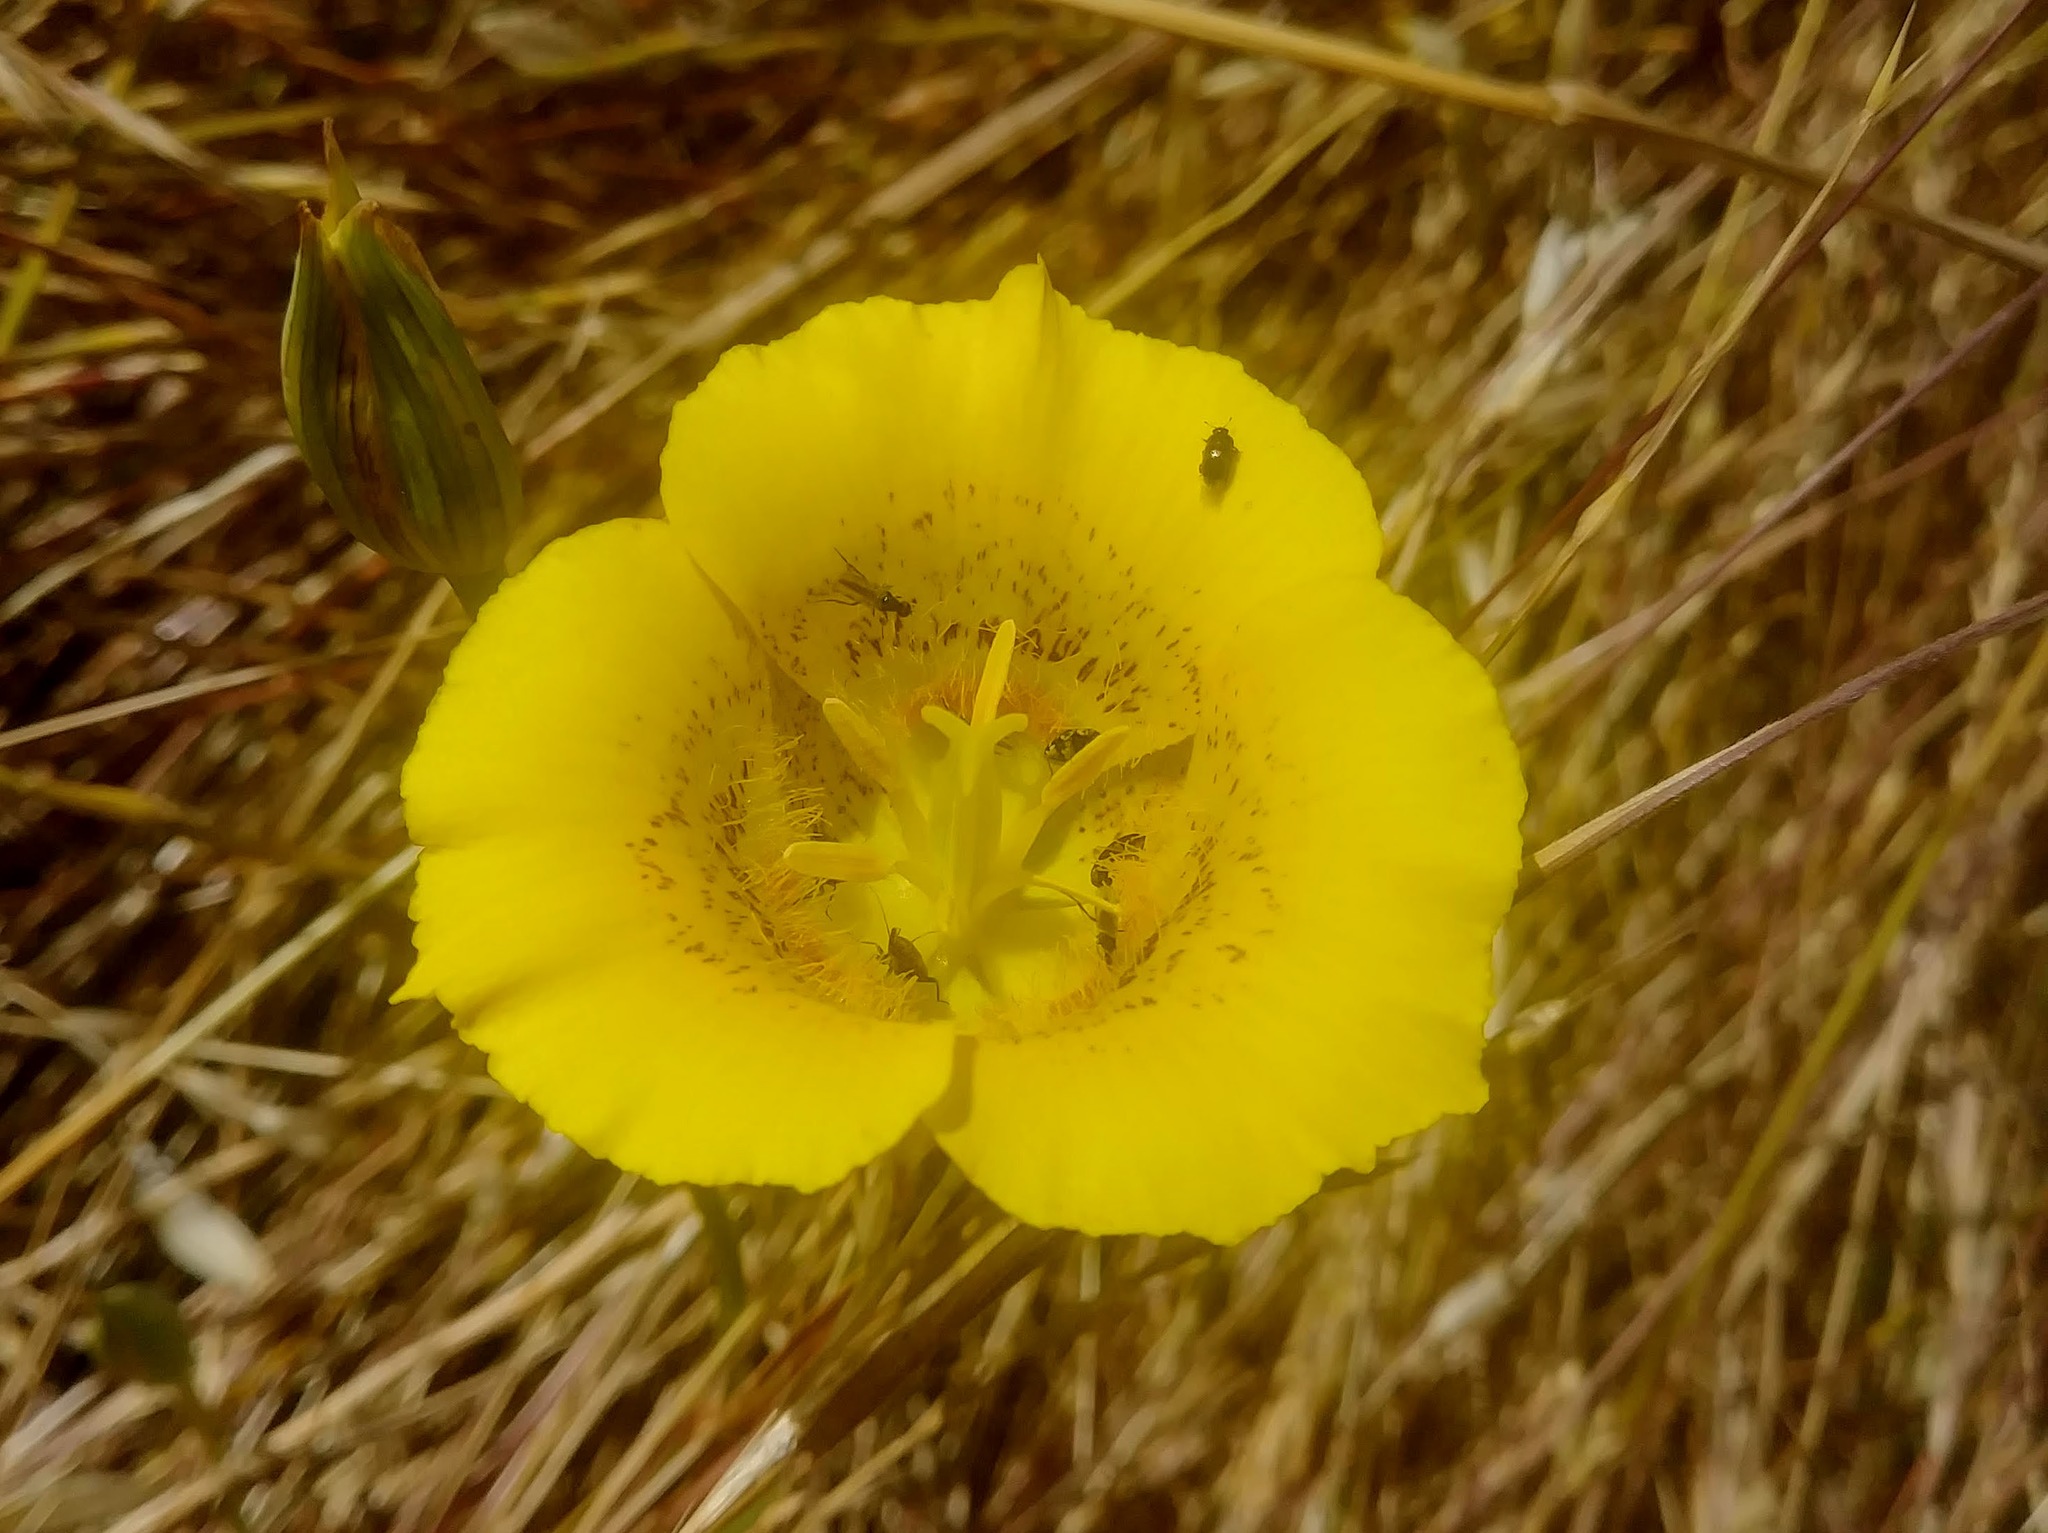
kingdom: Plantae
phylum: Tracheophyta
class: Liliopsida
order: Liliales
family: Liliaceae
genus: Calochortus
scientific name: Calochortus luteus
